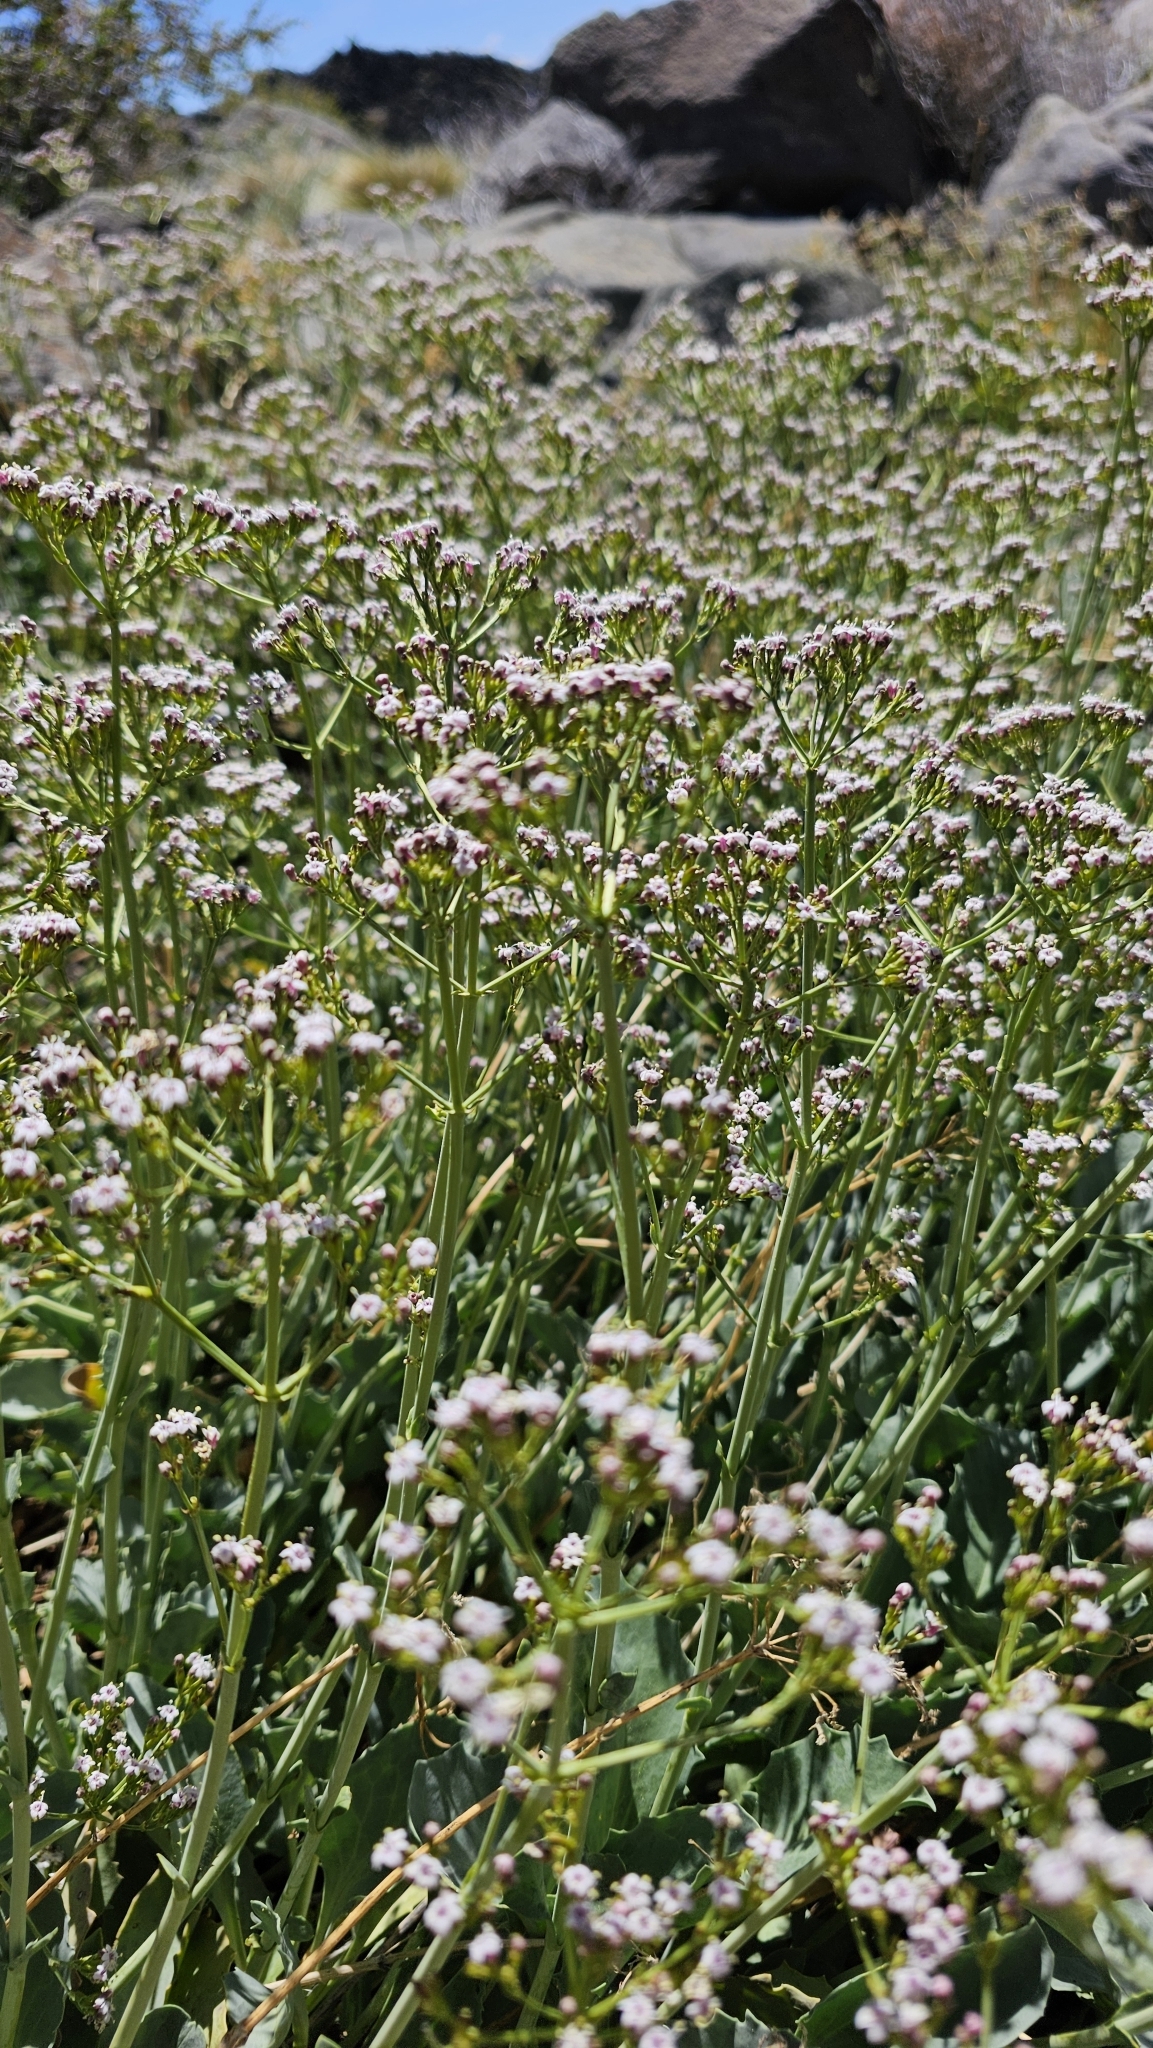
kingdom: Plantae
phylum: Tracheophyta
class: Magnoliopsida
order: Dipsacales
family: Caprifoliaceae
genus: Valeriana
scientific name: Valeriana carnosa
